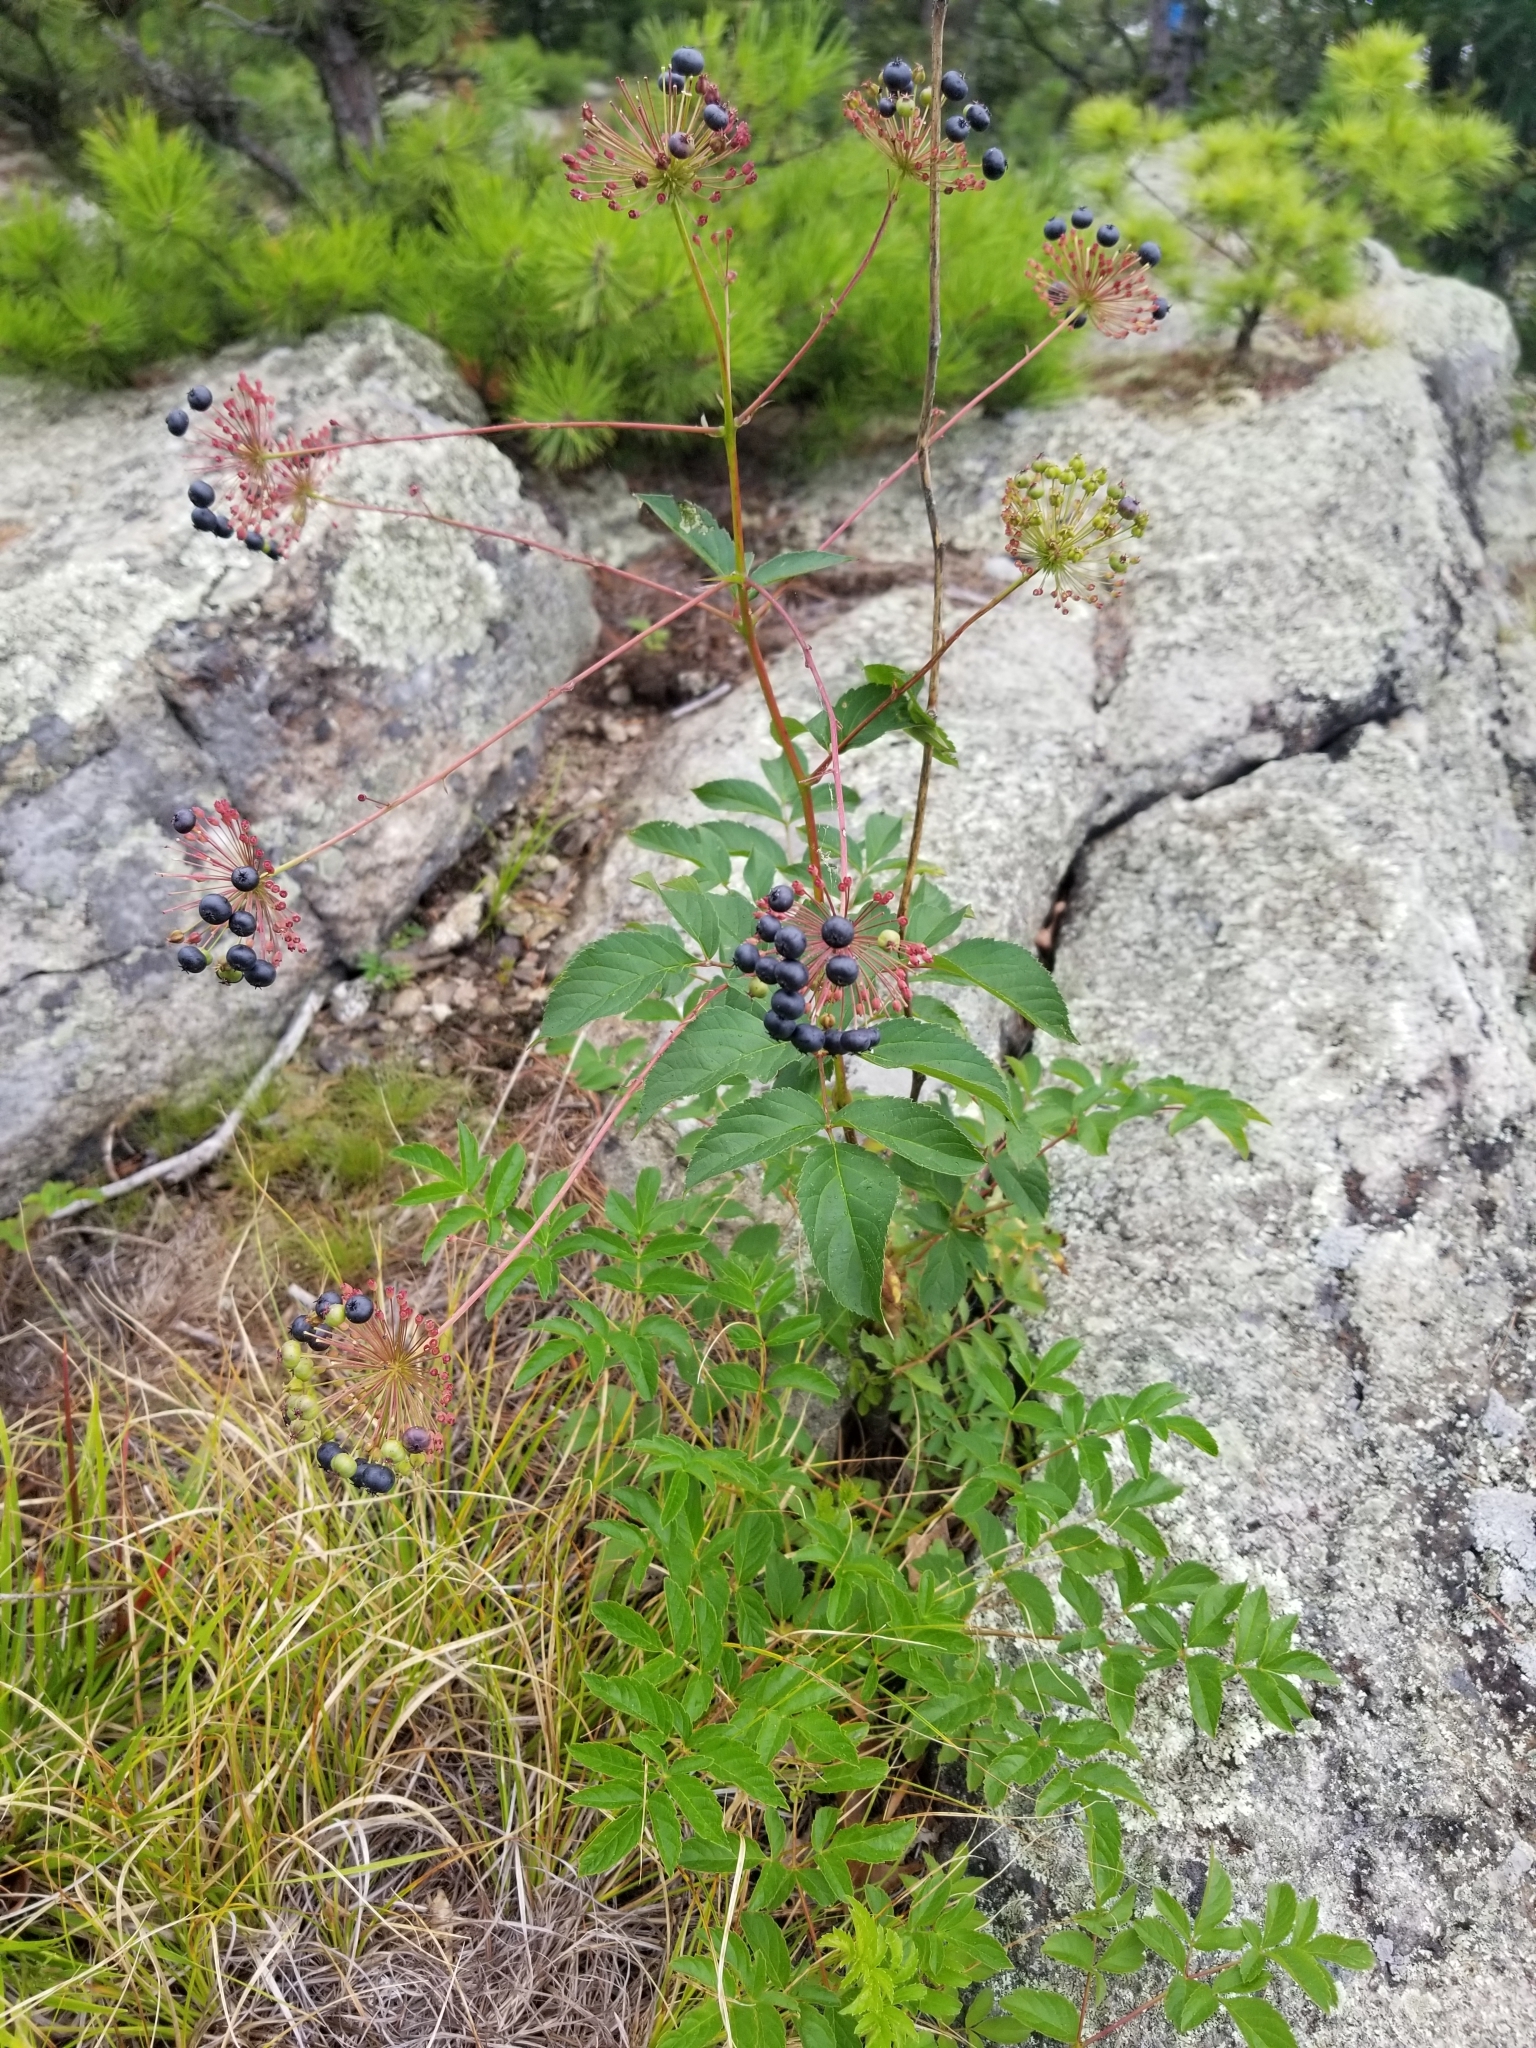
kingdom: Plantae
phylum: Tracheophyta
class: Magnoliopsida
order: Apiales
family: Araliaceae
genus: Aralia
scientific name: Aralia hispida
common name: Bristly sarsaparilla
